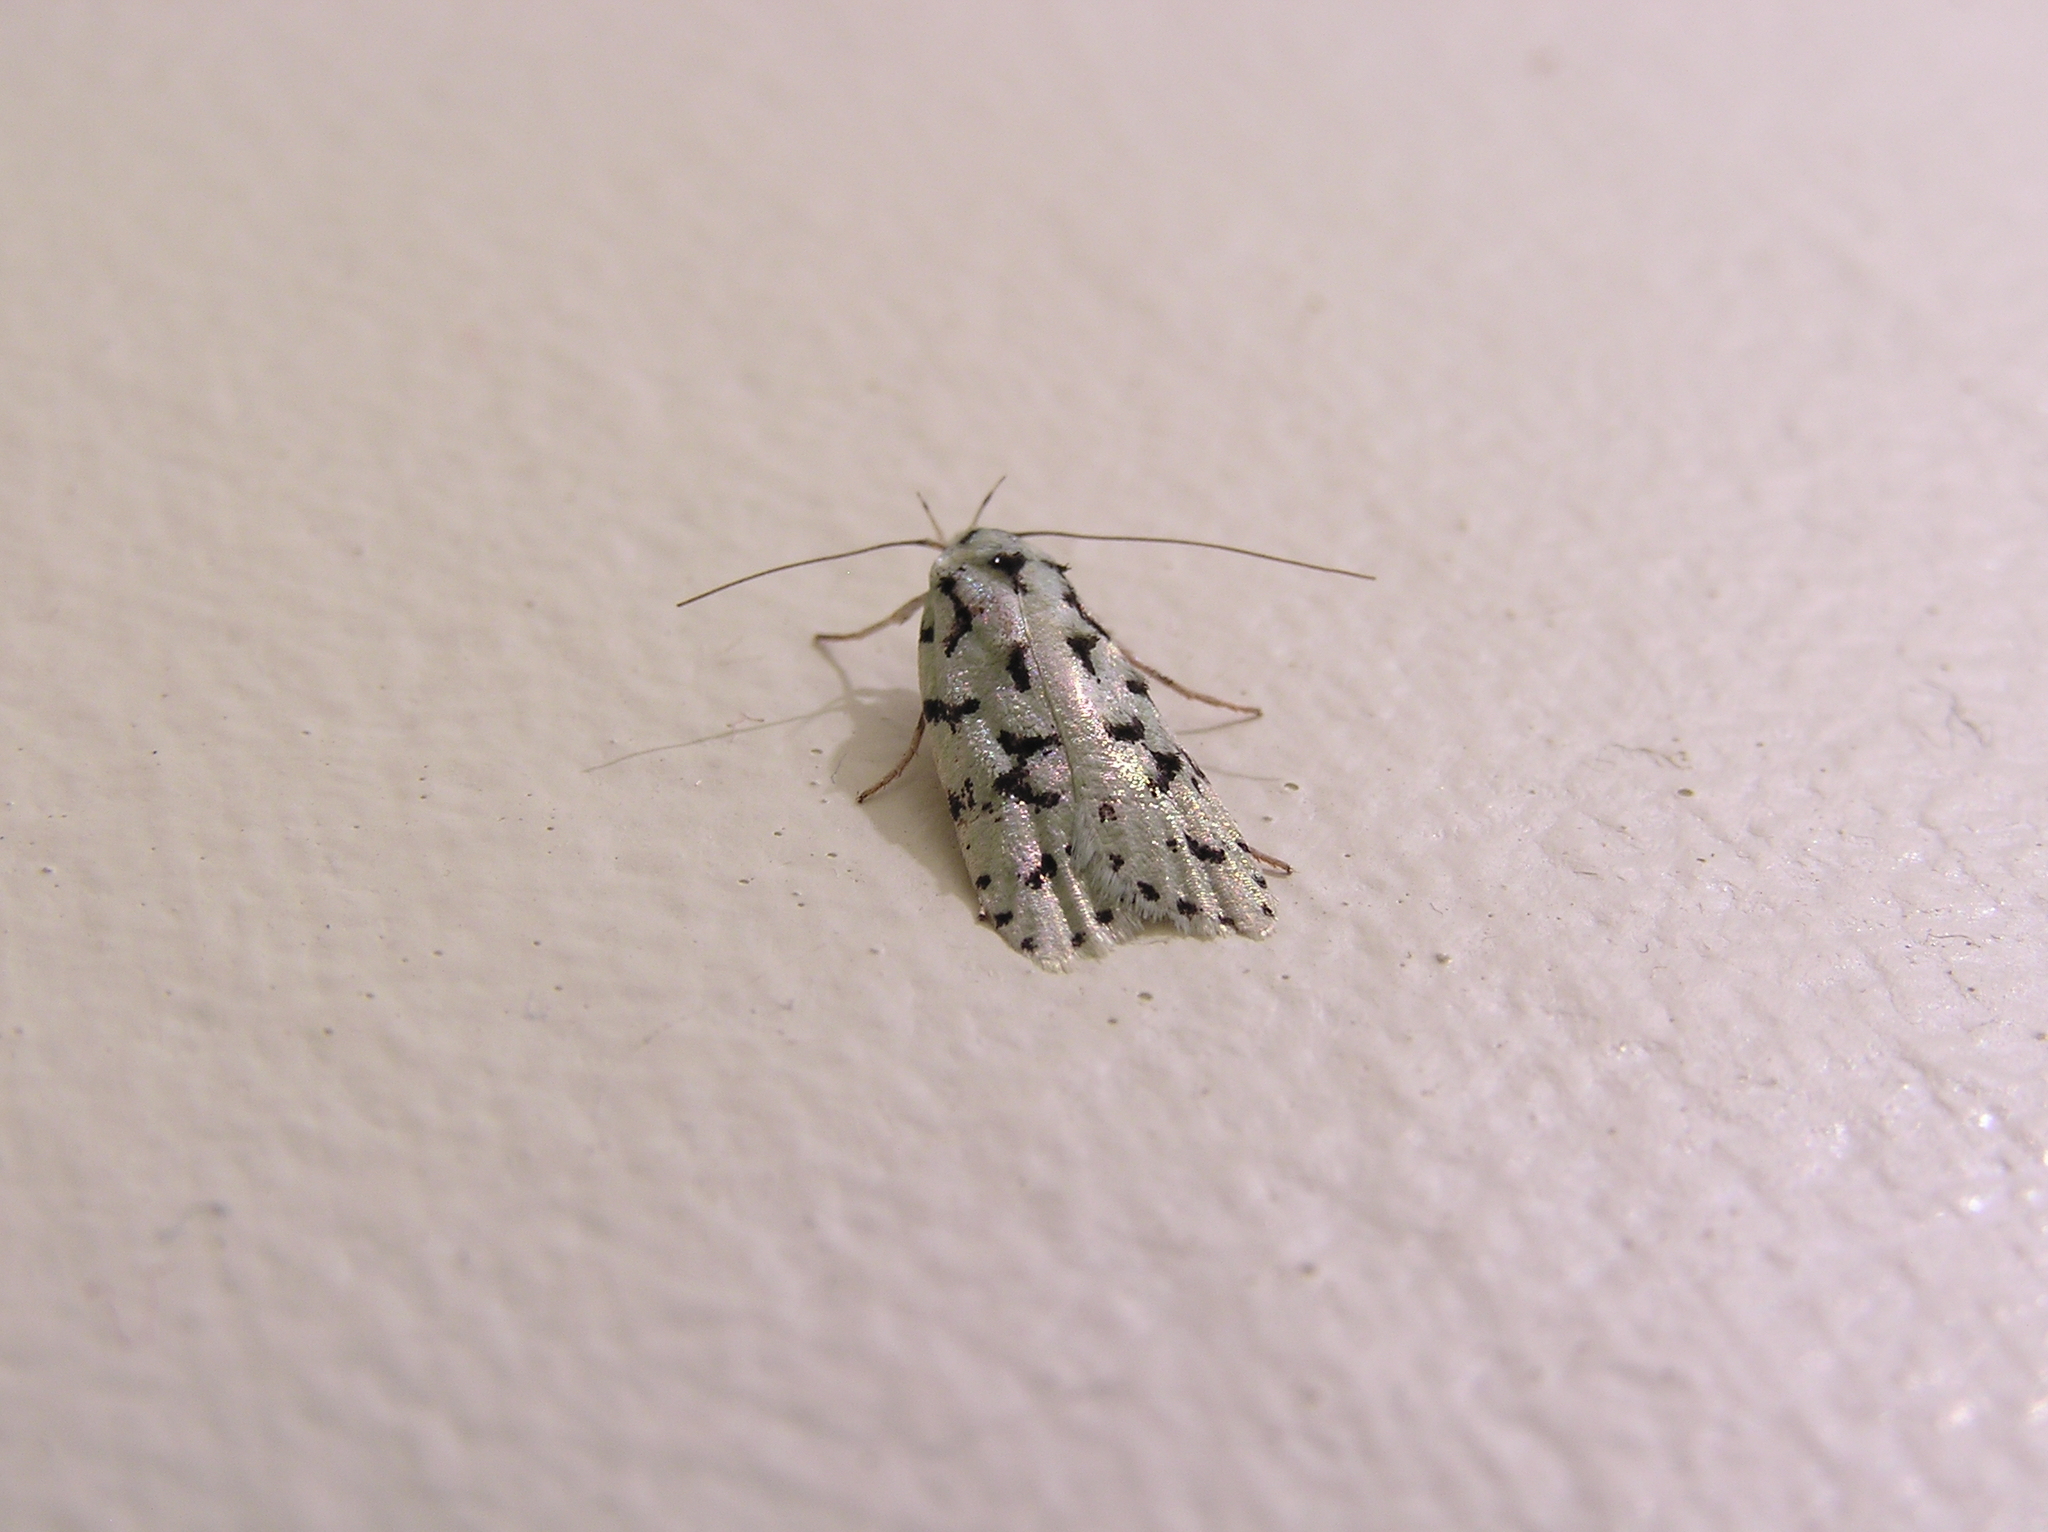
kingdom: Animalia
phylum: Arthropoda
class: Insecta
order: Lepidoptera
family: Oecophoridae
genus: Izatha
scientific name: Izatha huttoni
